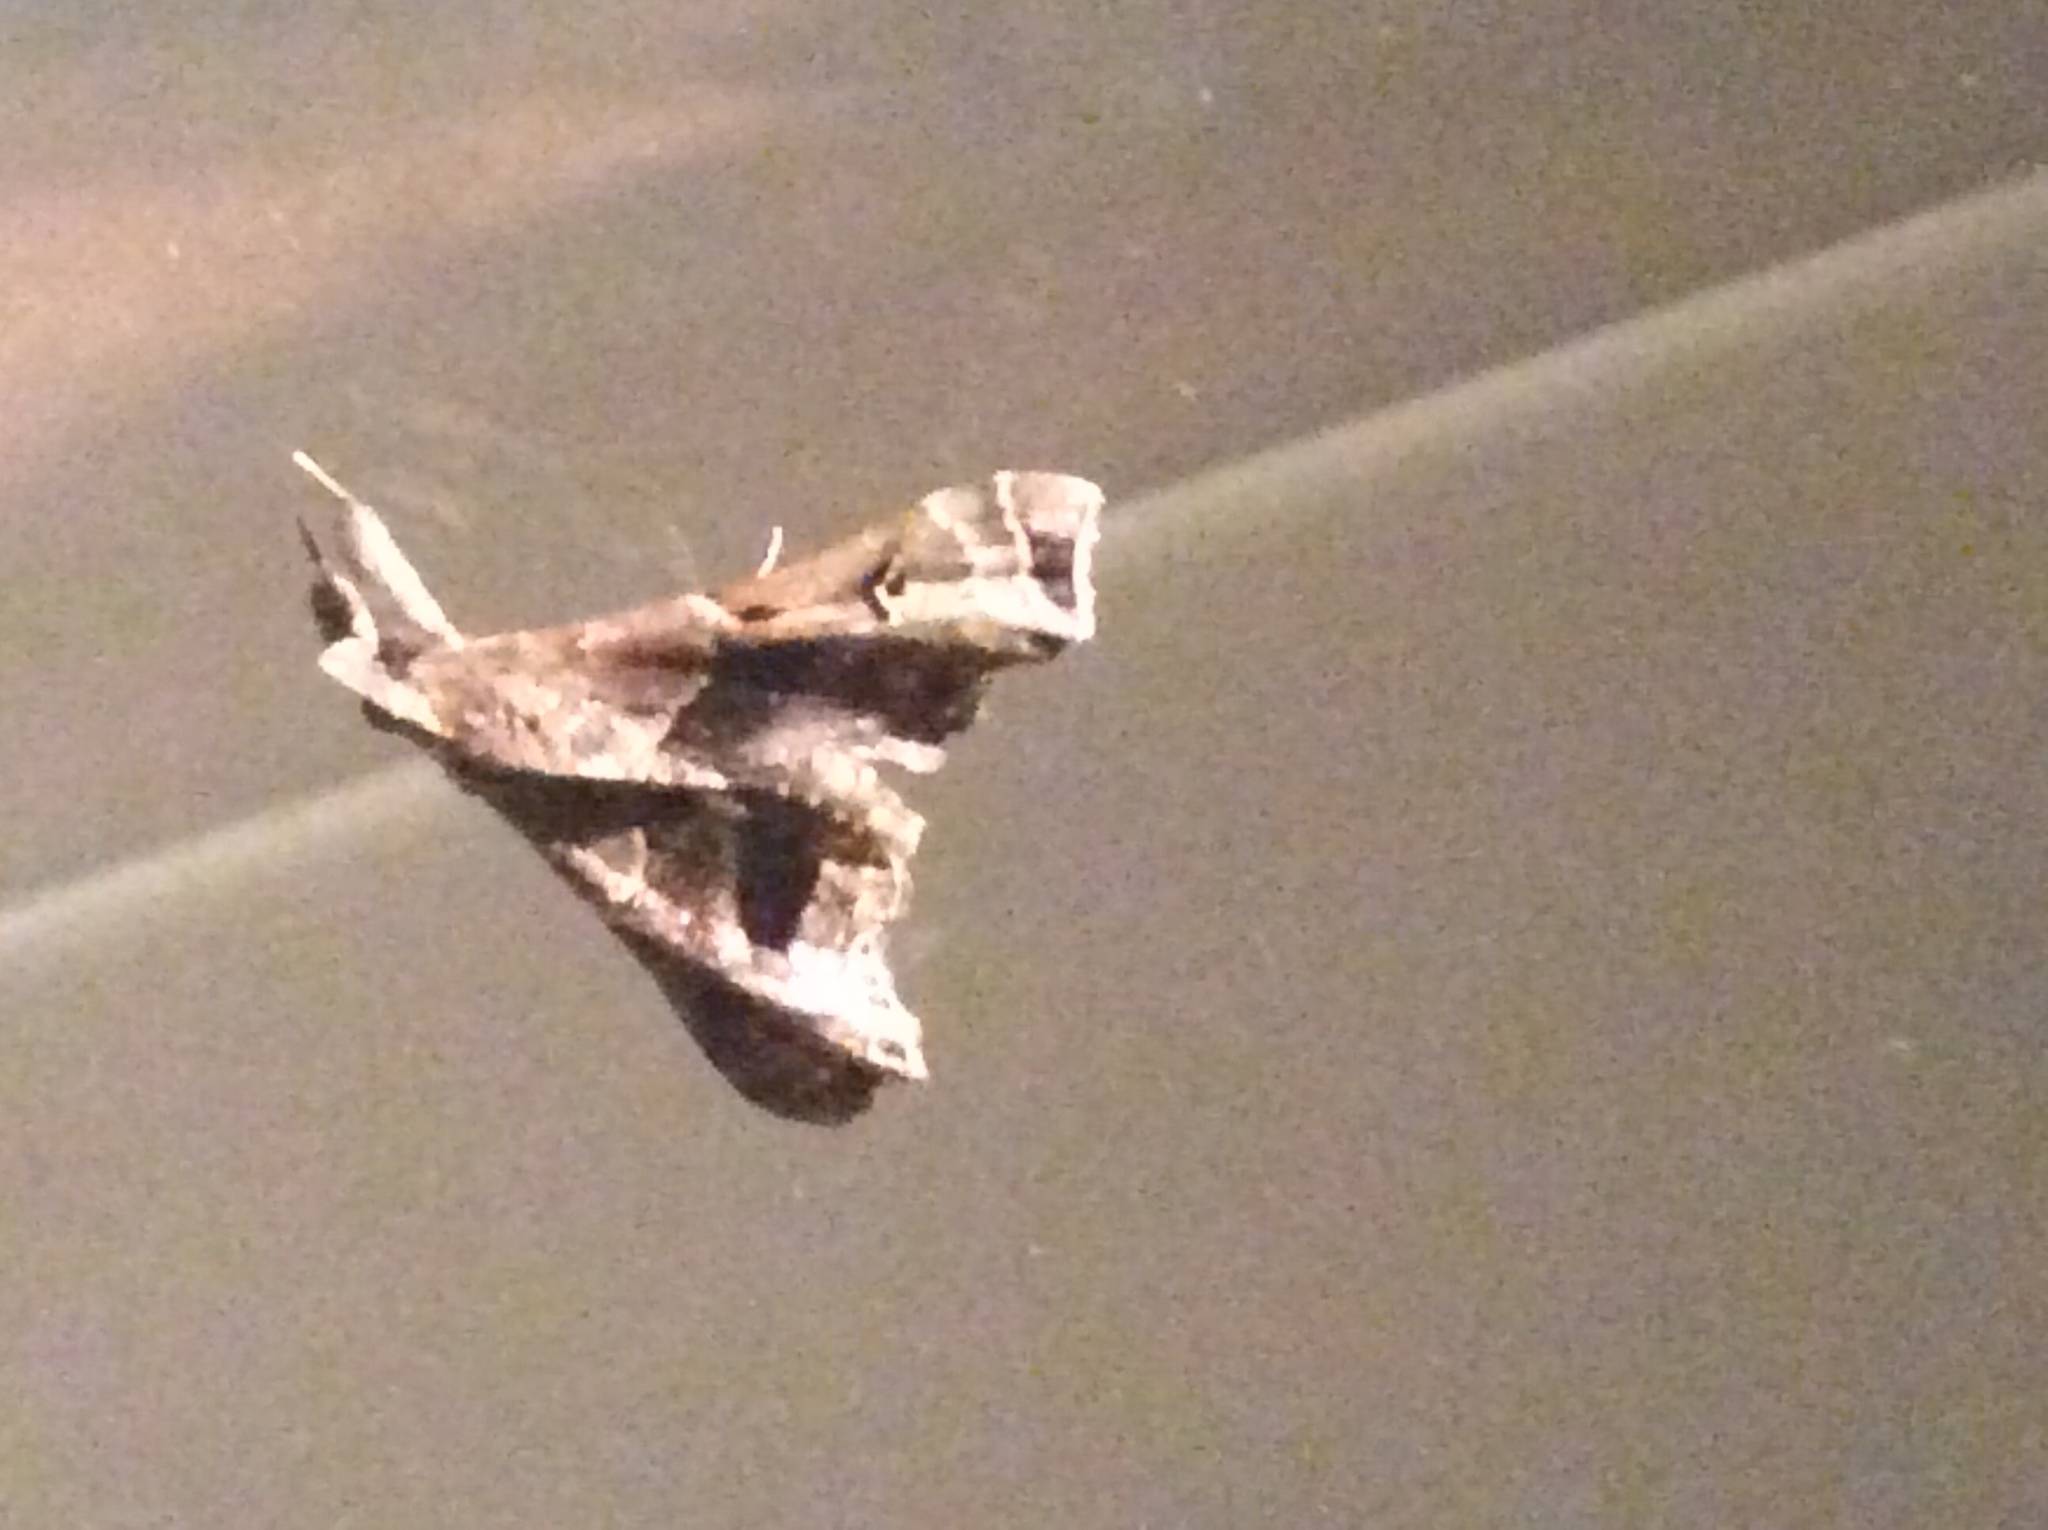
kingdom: Animalia
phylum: Arthropoda
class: Insecta
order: Lepidoptera
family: Erebidae
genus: Palthis
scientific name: Palthis asopialis
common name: Faint-spotted palthis moth
